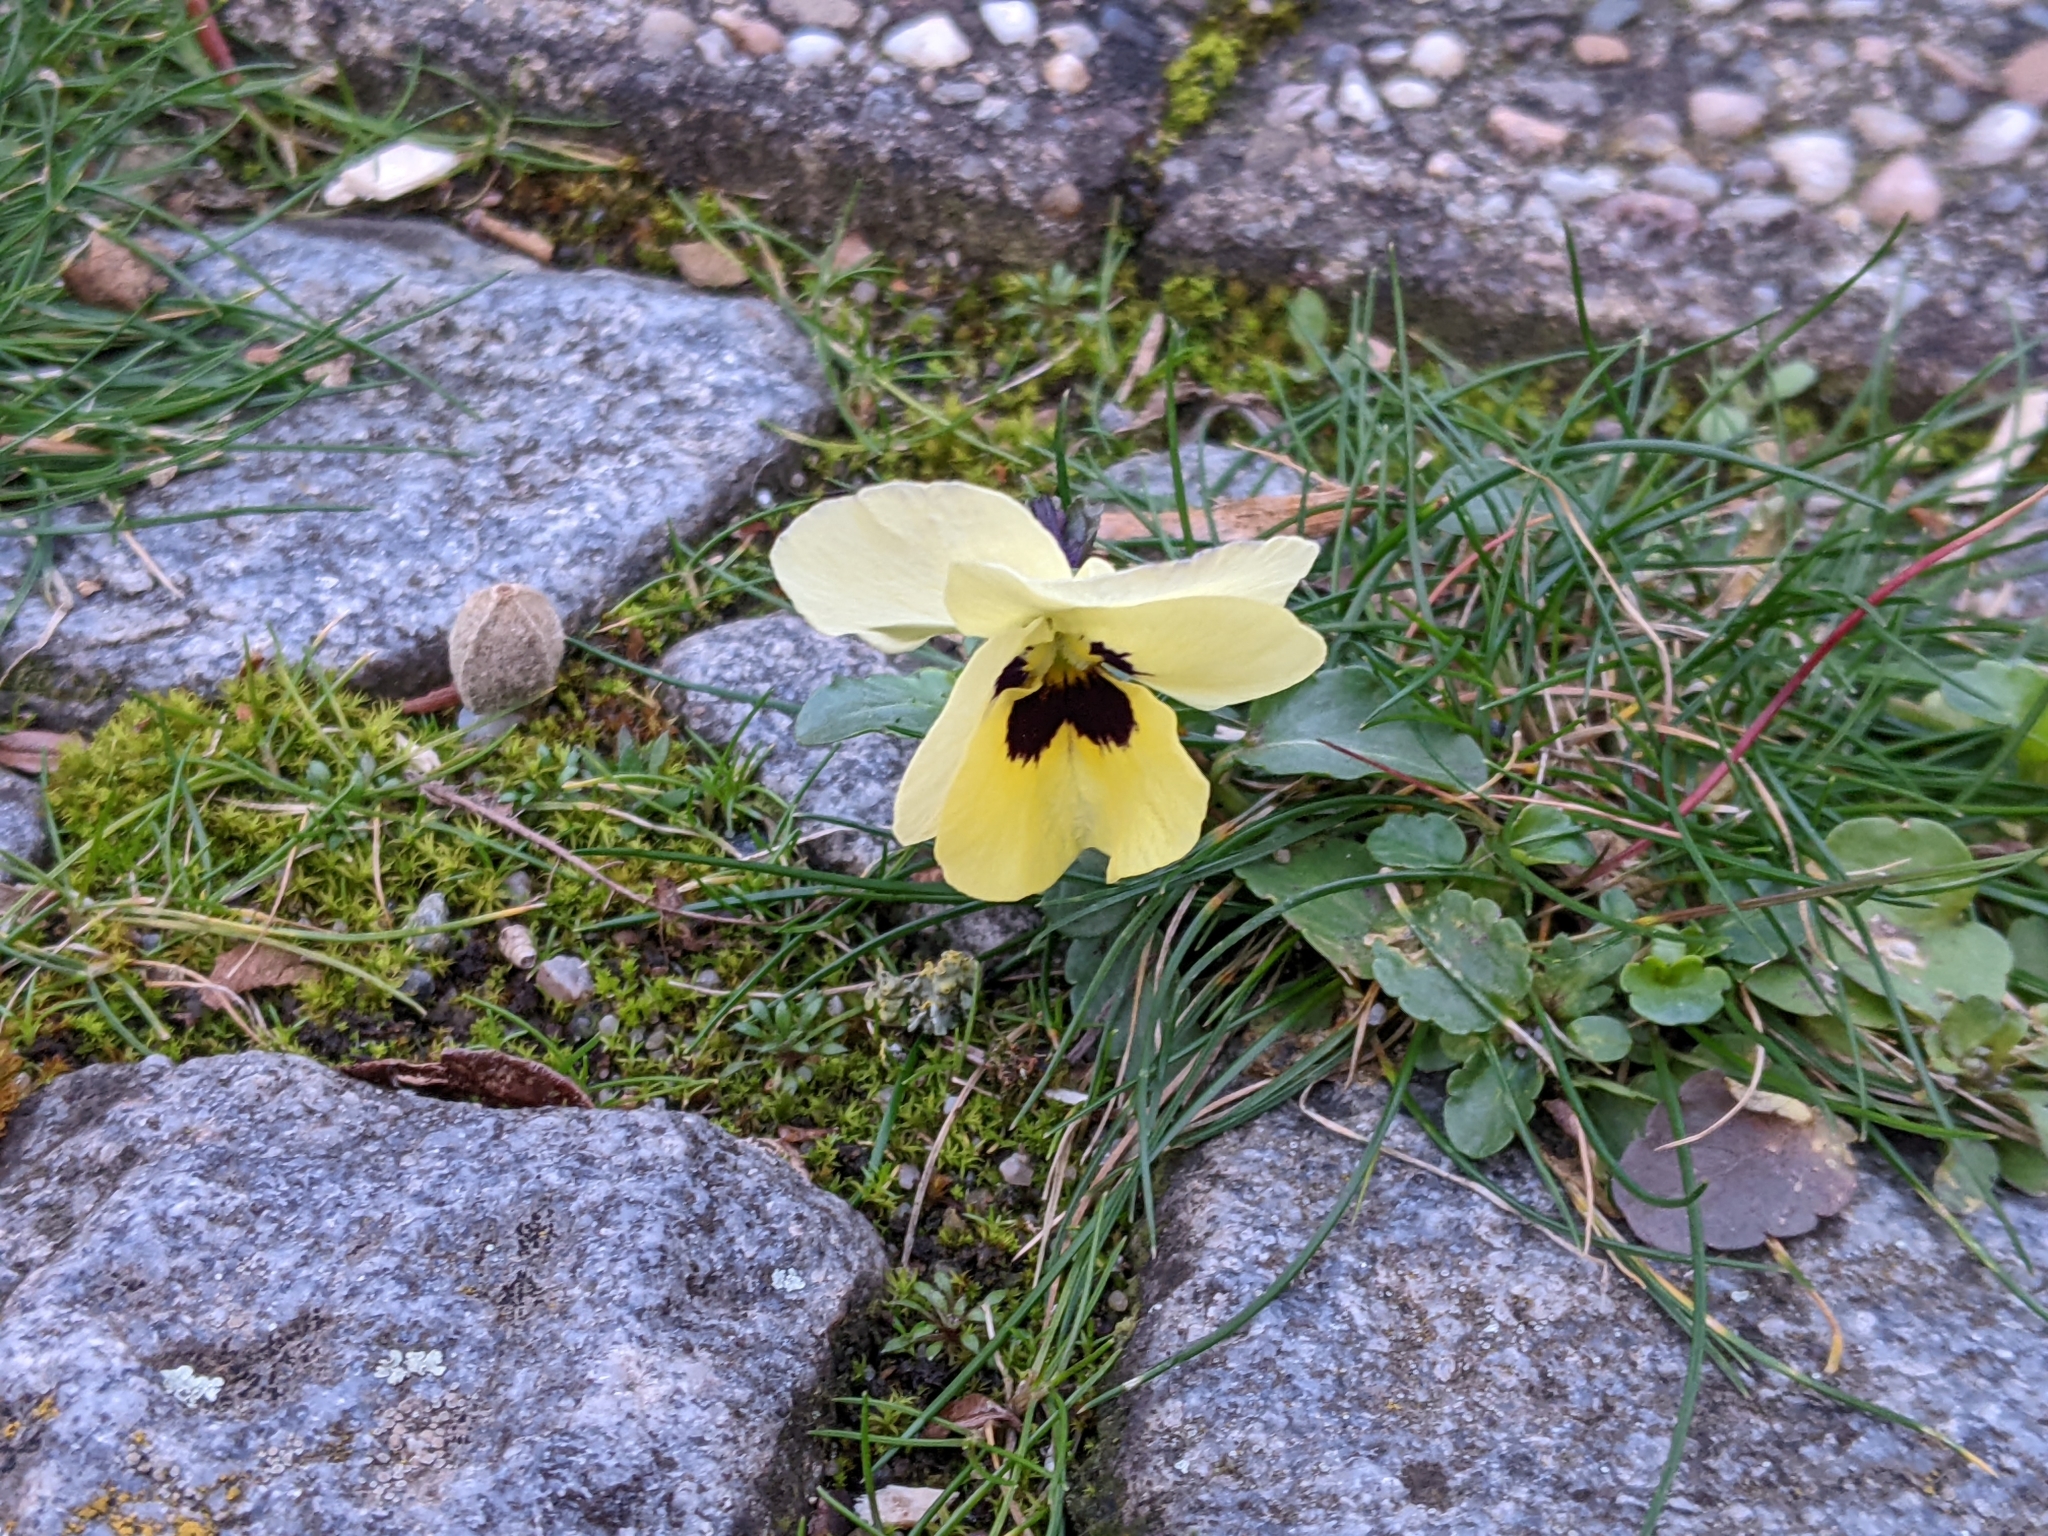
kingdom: Plantae
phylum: Tracheophyta
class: Magnoliopsida
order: Malpighiales
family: Violaceae
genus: Viola
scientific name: Viola wittrockiana
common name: Garden pansy
